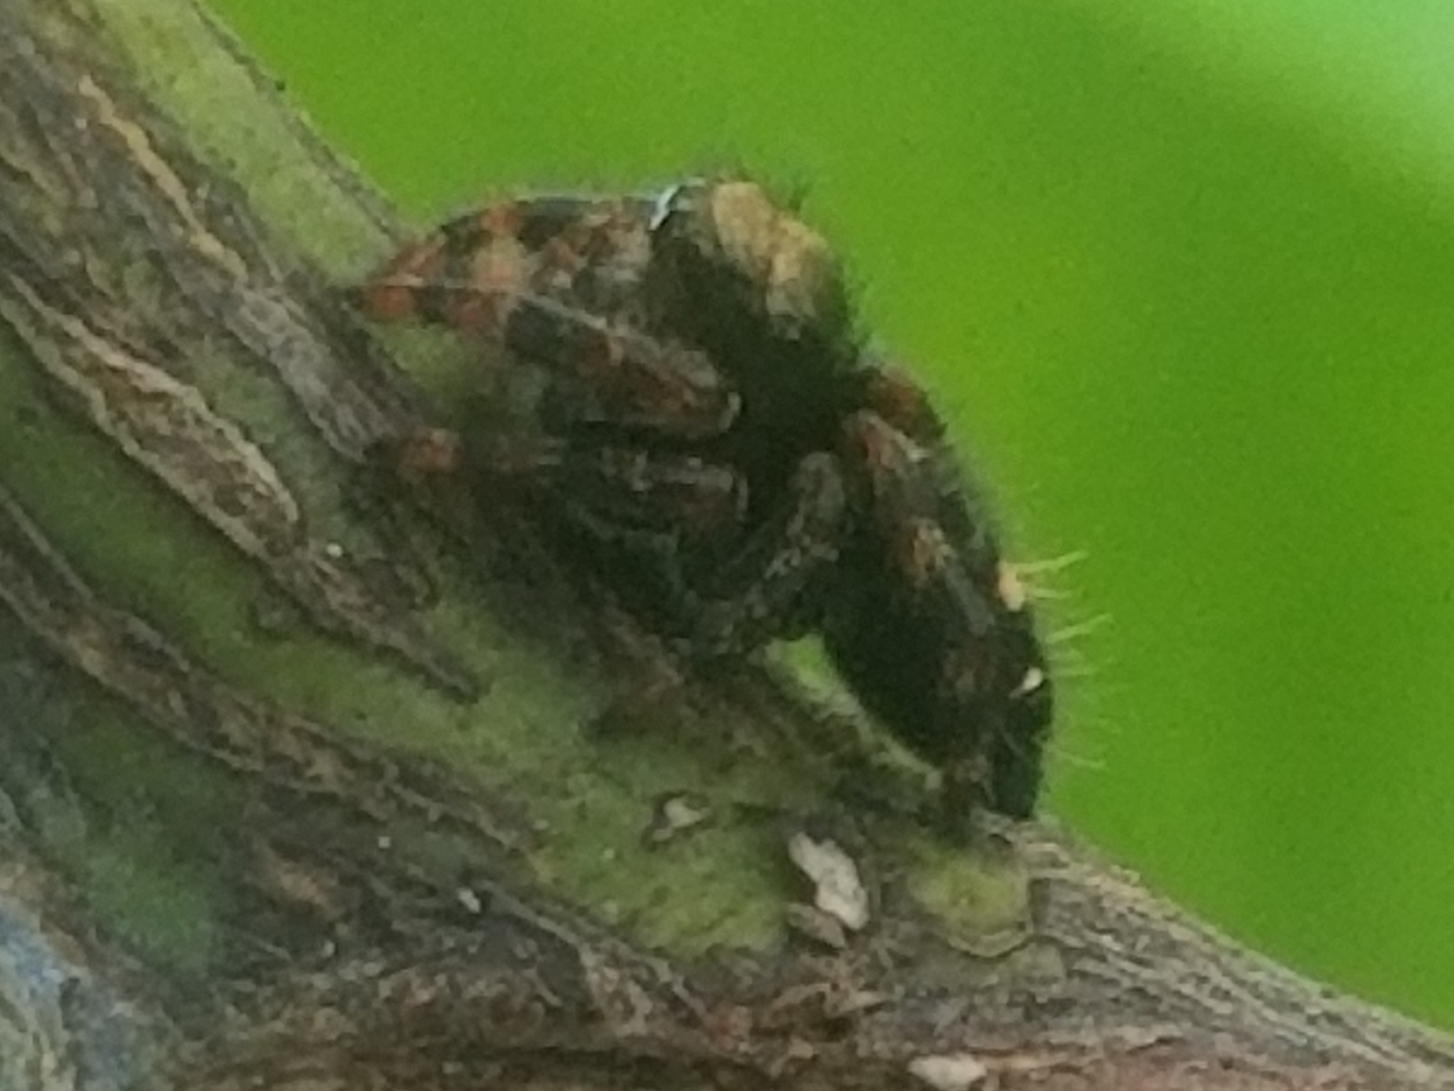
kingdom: Animalia
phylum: Arthropoda
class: Arachnida
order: Araneae
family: Salticidae
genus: Phidippus
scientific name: Phidippus audax
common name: Bold jumper
